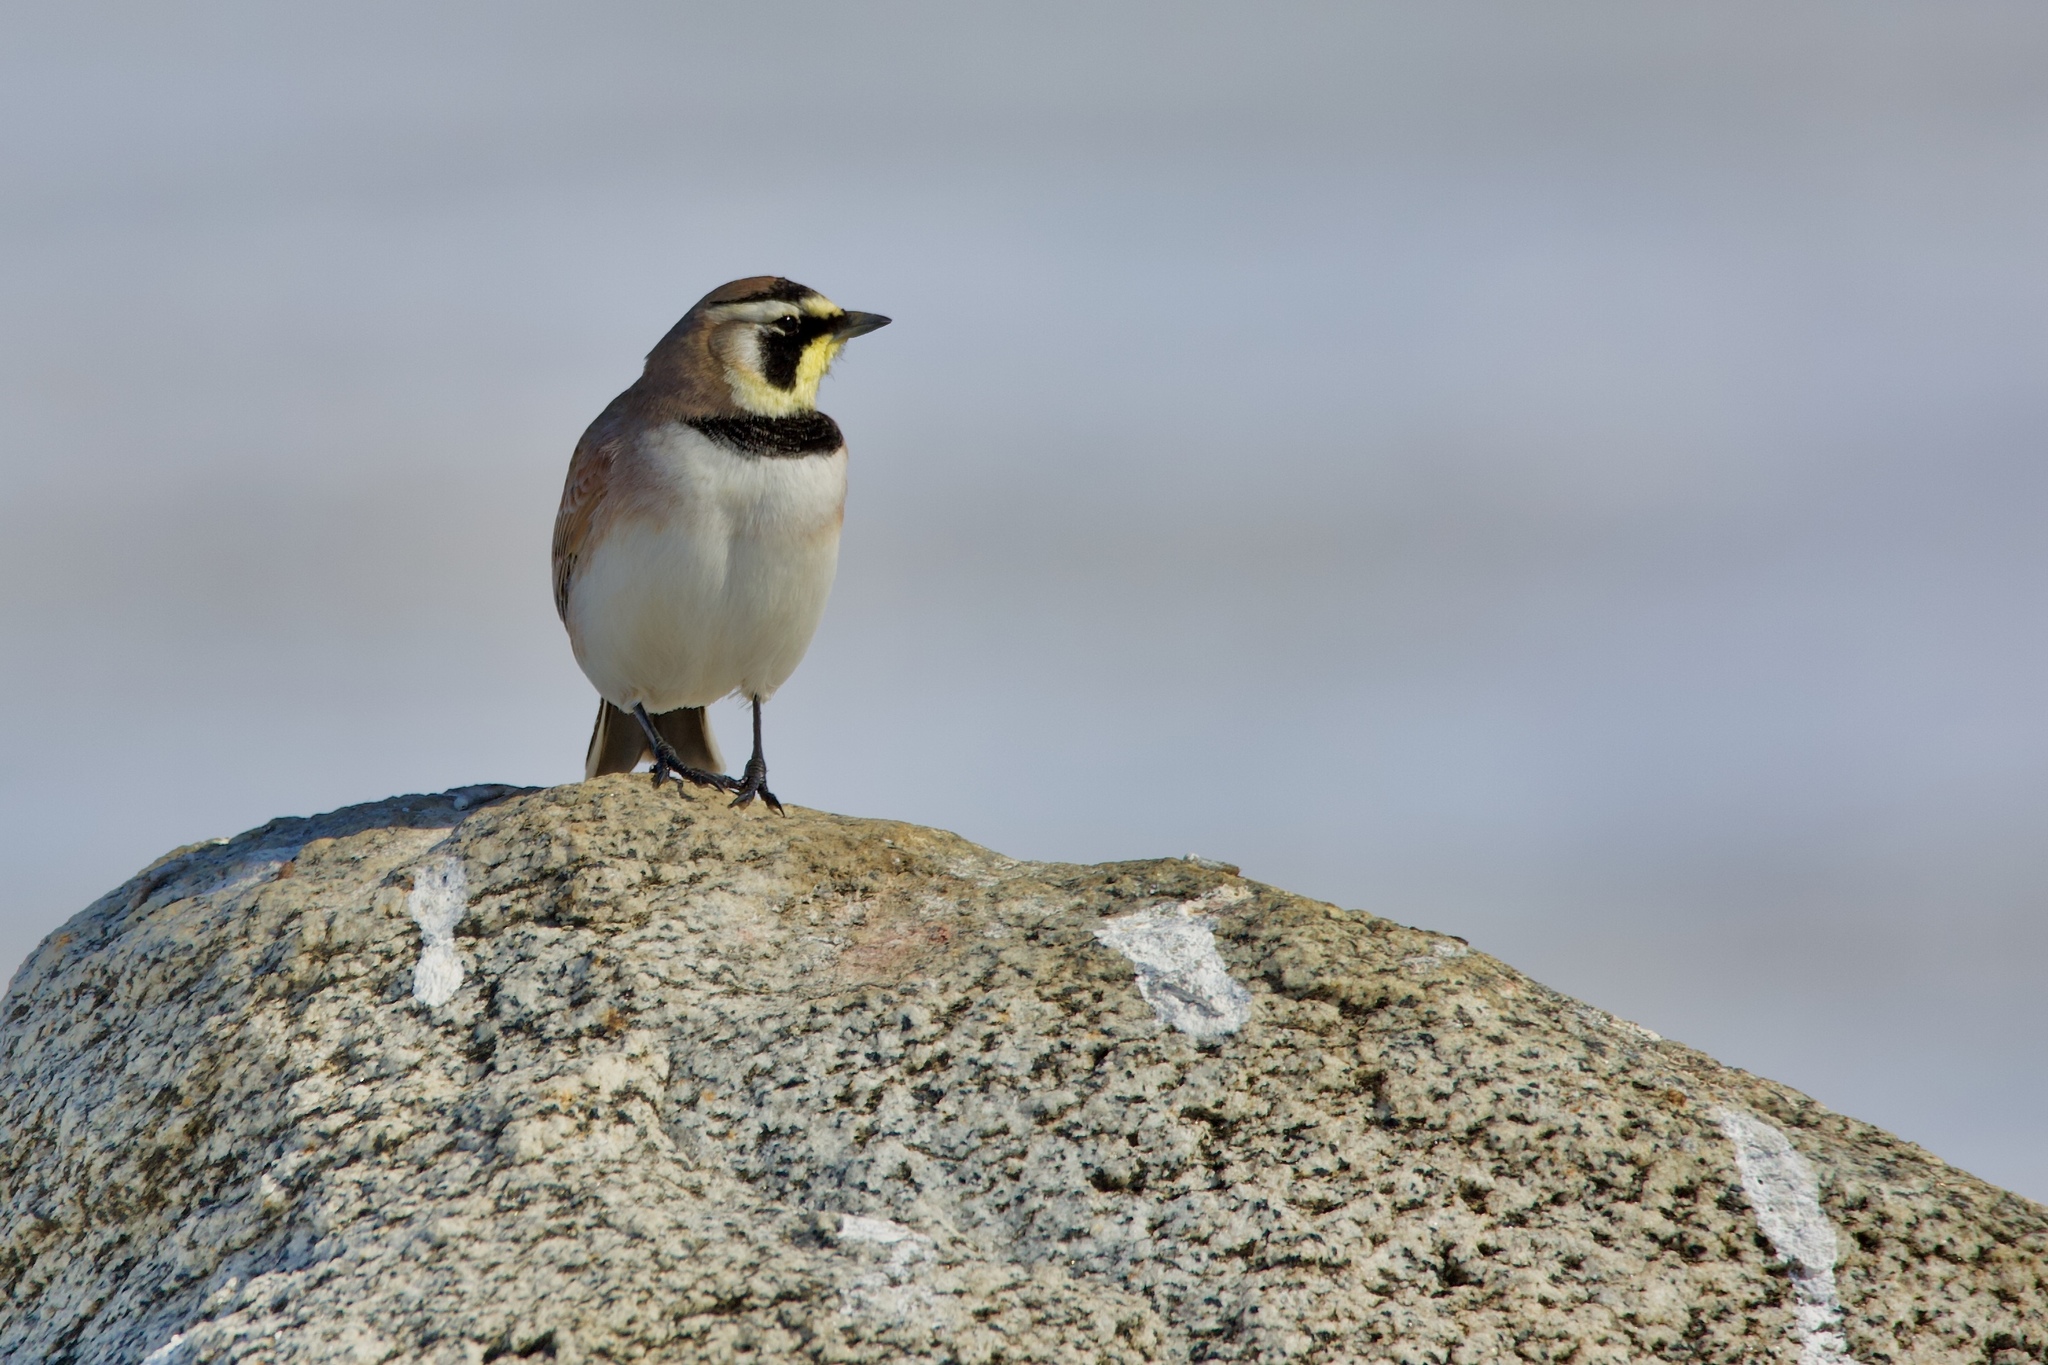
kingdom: Animalia
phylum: Chordata
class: Aves
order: Passeriformes
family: Alaudidae
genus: Eremophila
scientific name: Eremophila alpestris
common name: Horned lark
